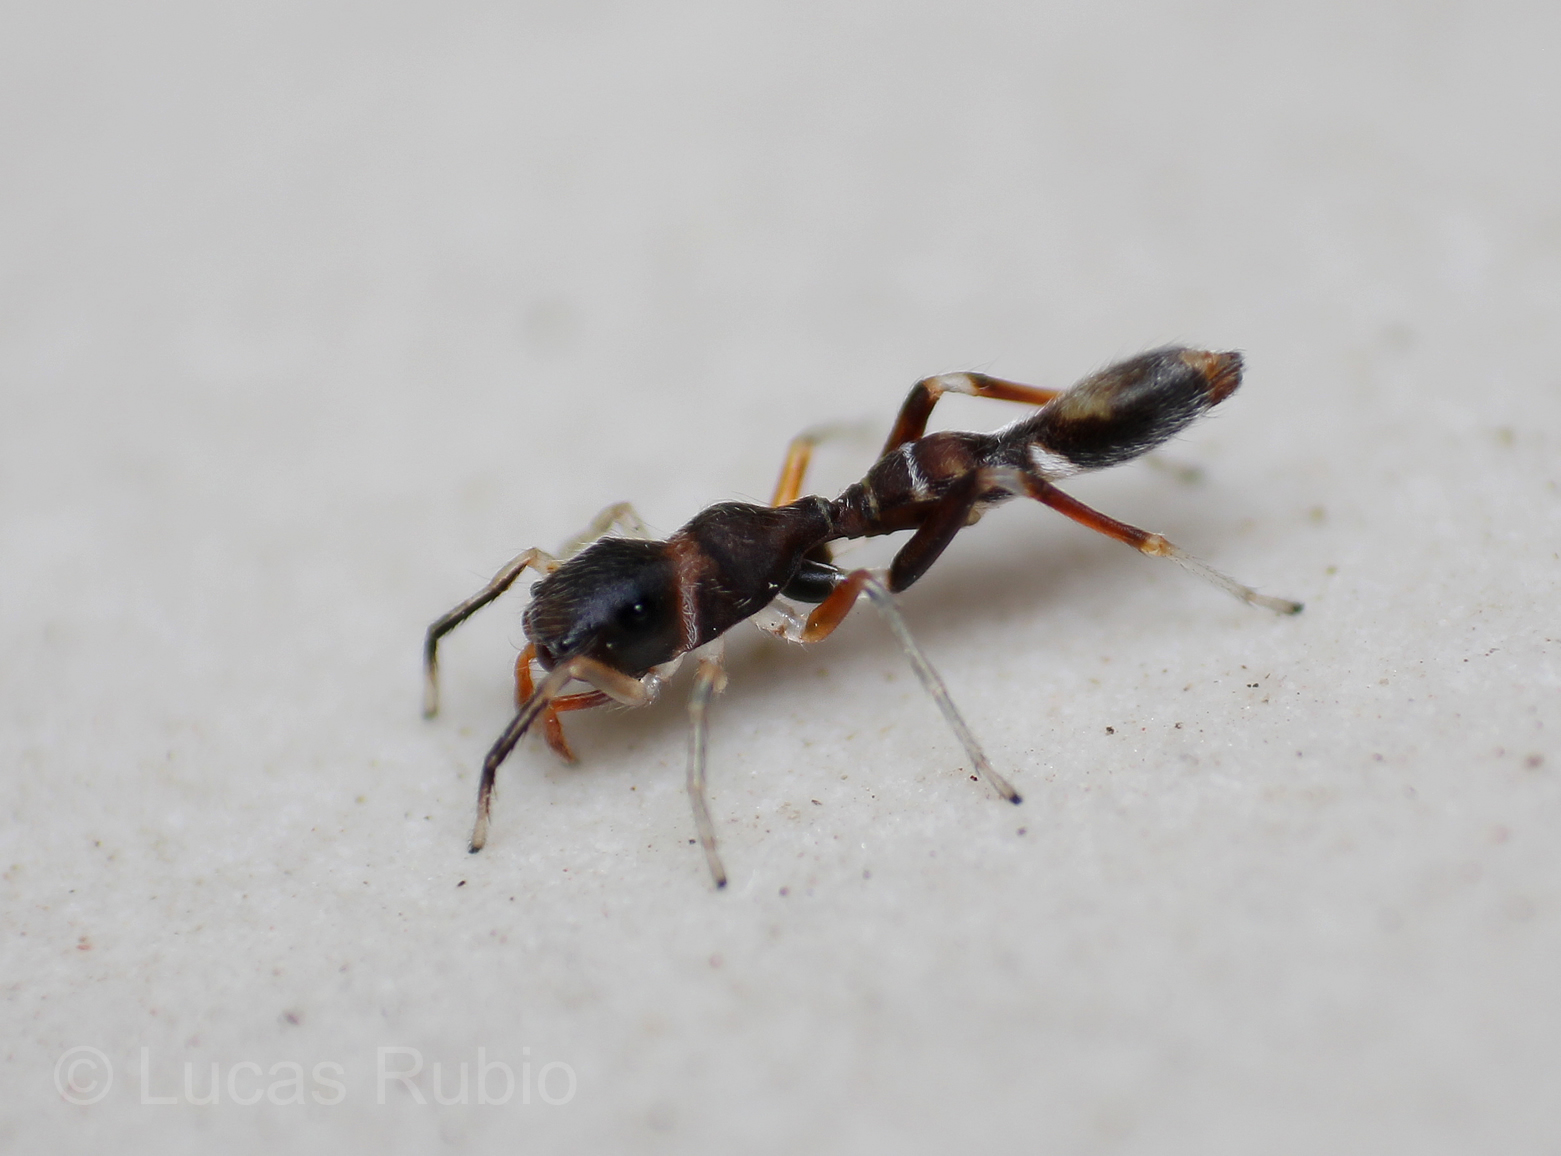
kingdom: Animalia
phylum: Arthropoda
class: Arachnida
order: Araneae
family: Salticidae
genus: Synemosyna
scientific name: Synemosyna aurantiaca
